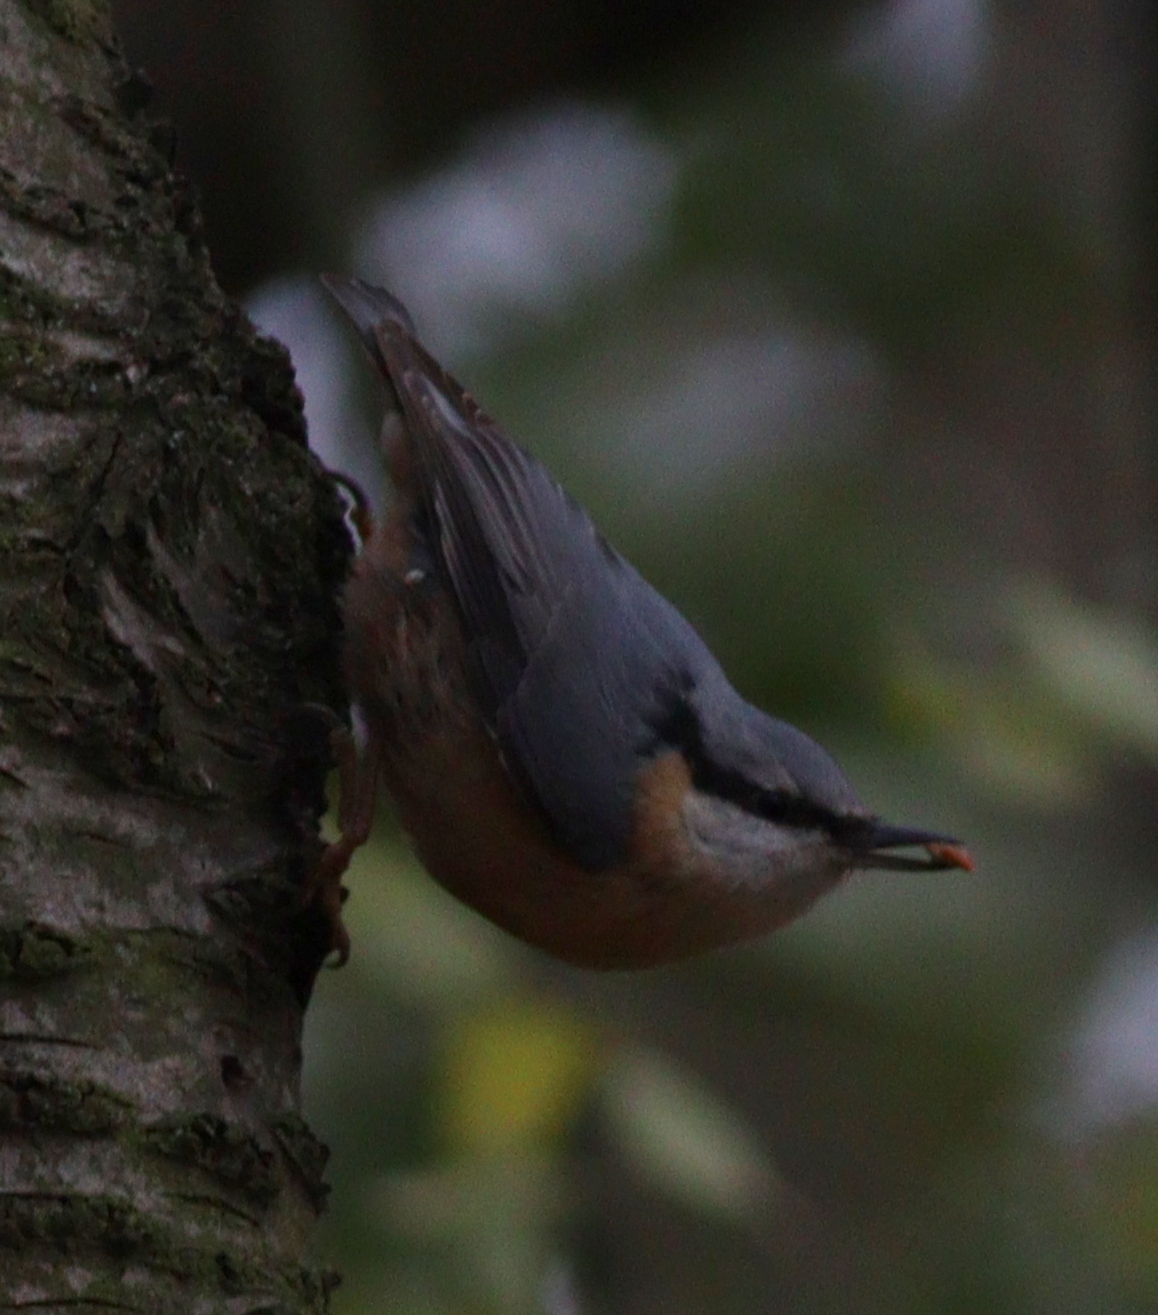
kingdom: Animalia
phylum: Chordata
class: Aves
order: Passeriformes
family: Sittidae
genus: Sitta
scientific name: Sitta europaea
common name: Eurasian nuthatch
